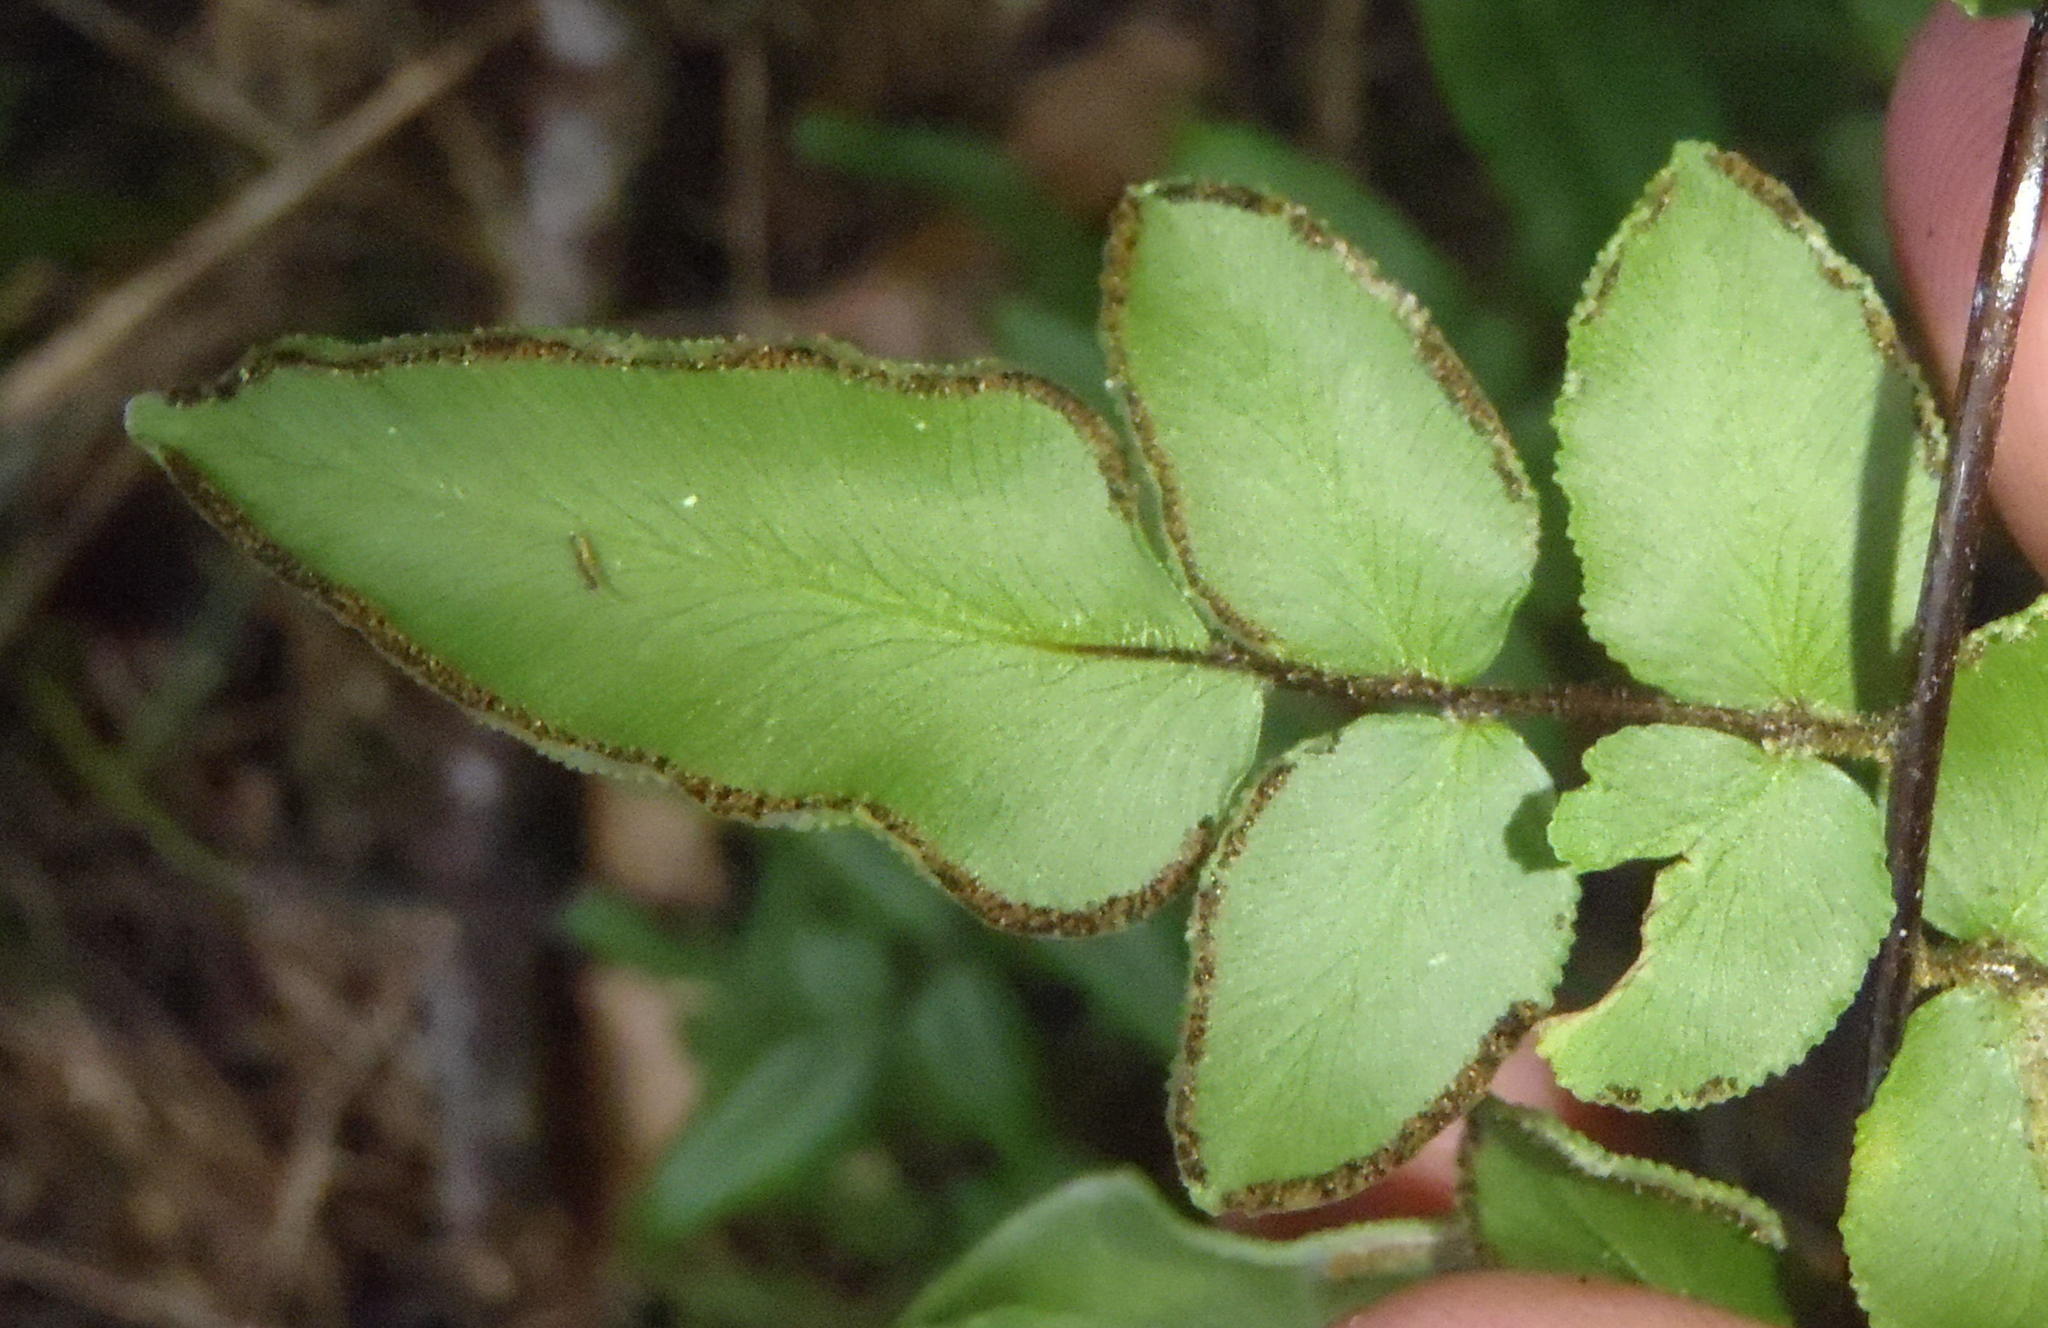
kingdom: Plantae
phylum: Tracheophyta
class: Polypodiopsida
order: Polypodiales
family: Pteridaceae
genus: Cheilanthes
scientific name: Cheilanthes viridis
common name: Green cliffbrake
